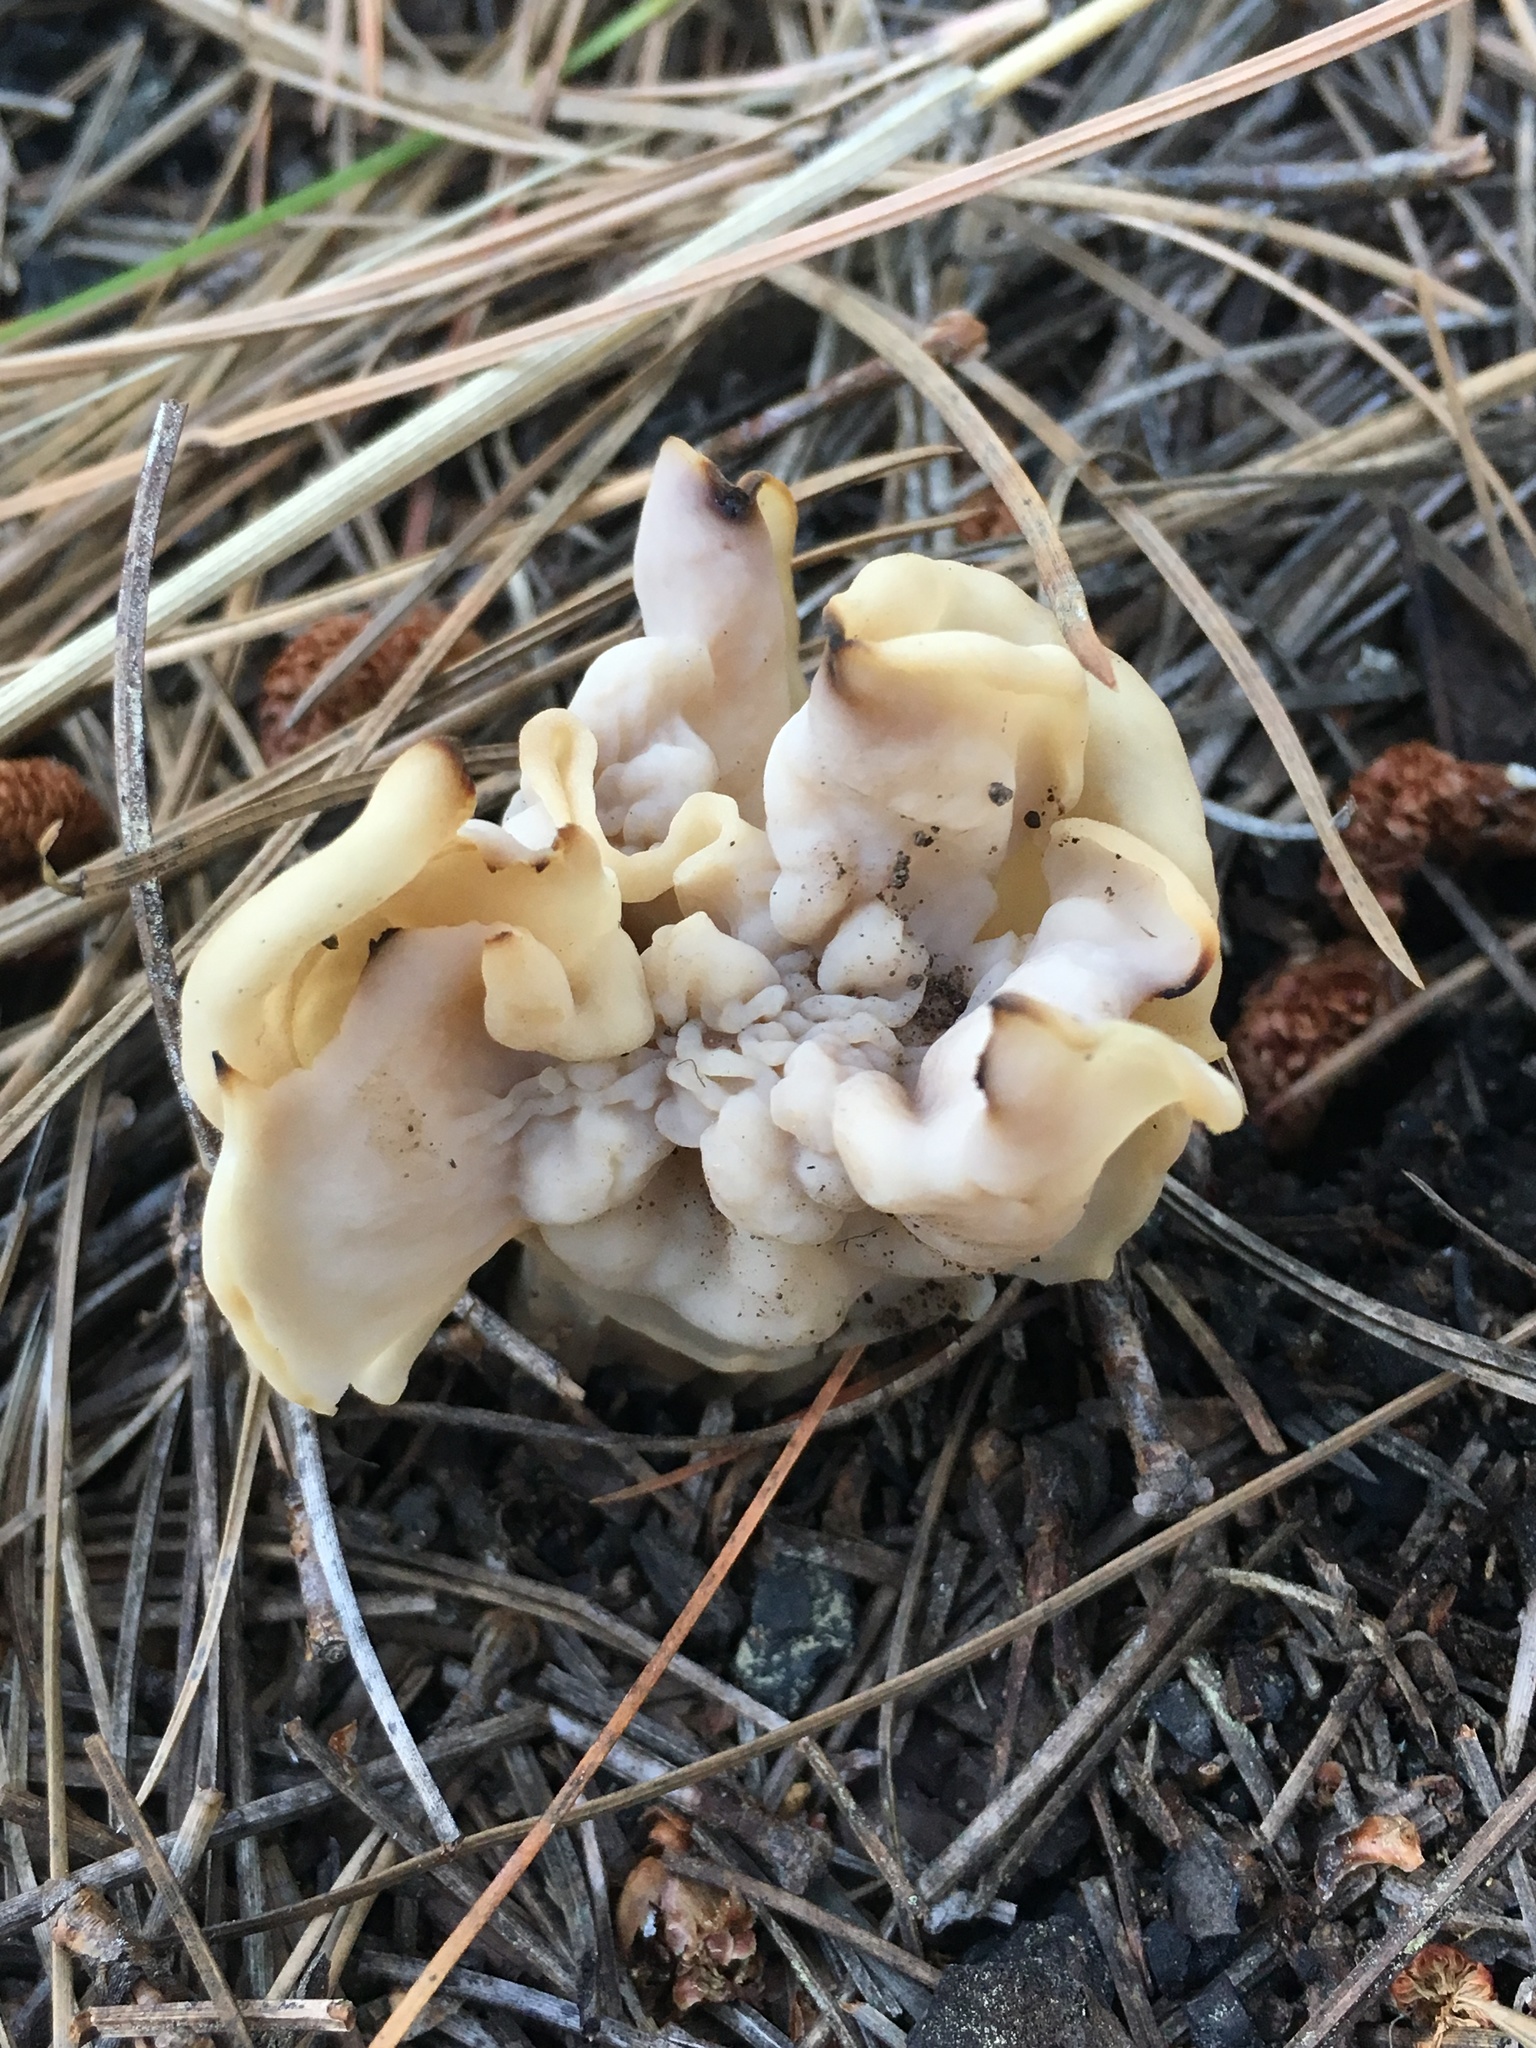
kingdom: Fungi
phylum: Ascomycota
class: Pezizomycetes
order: Pezizales
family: Helvellaceae
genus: Helvella
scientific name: Helvella crispa
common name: White saddle
